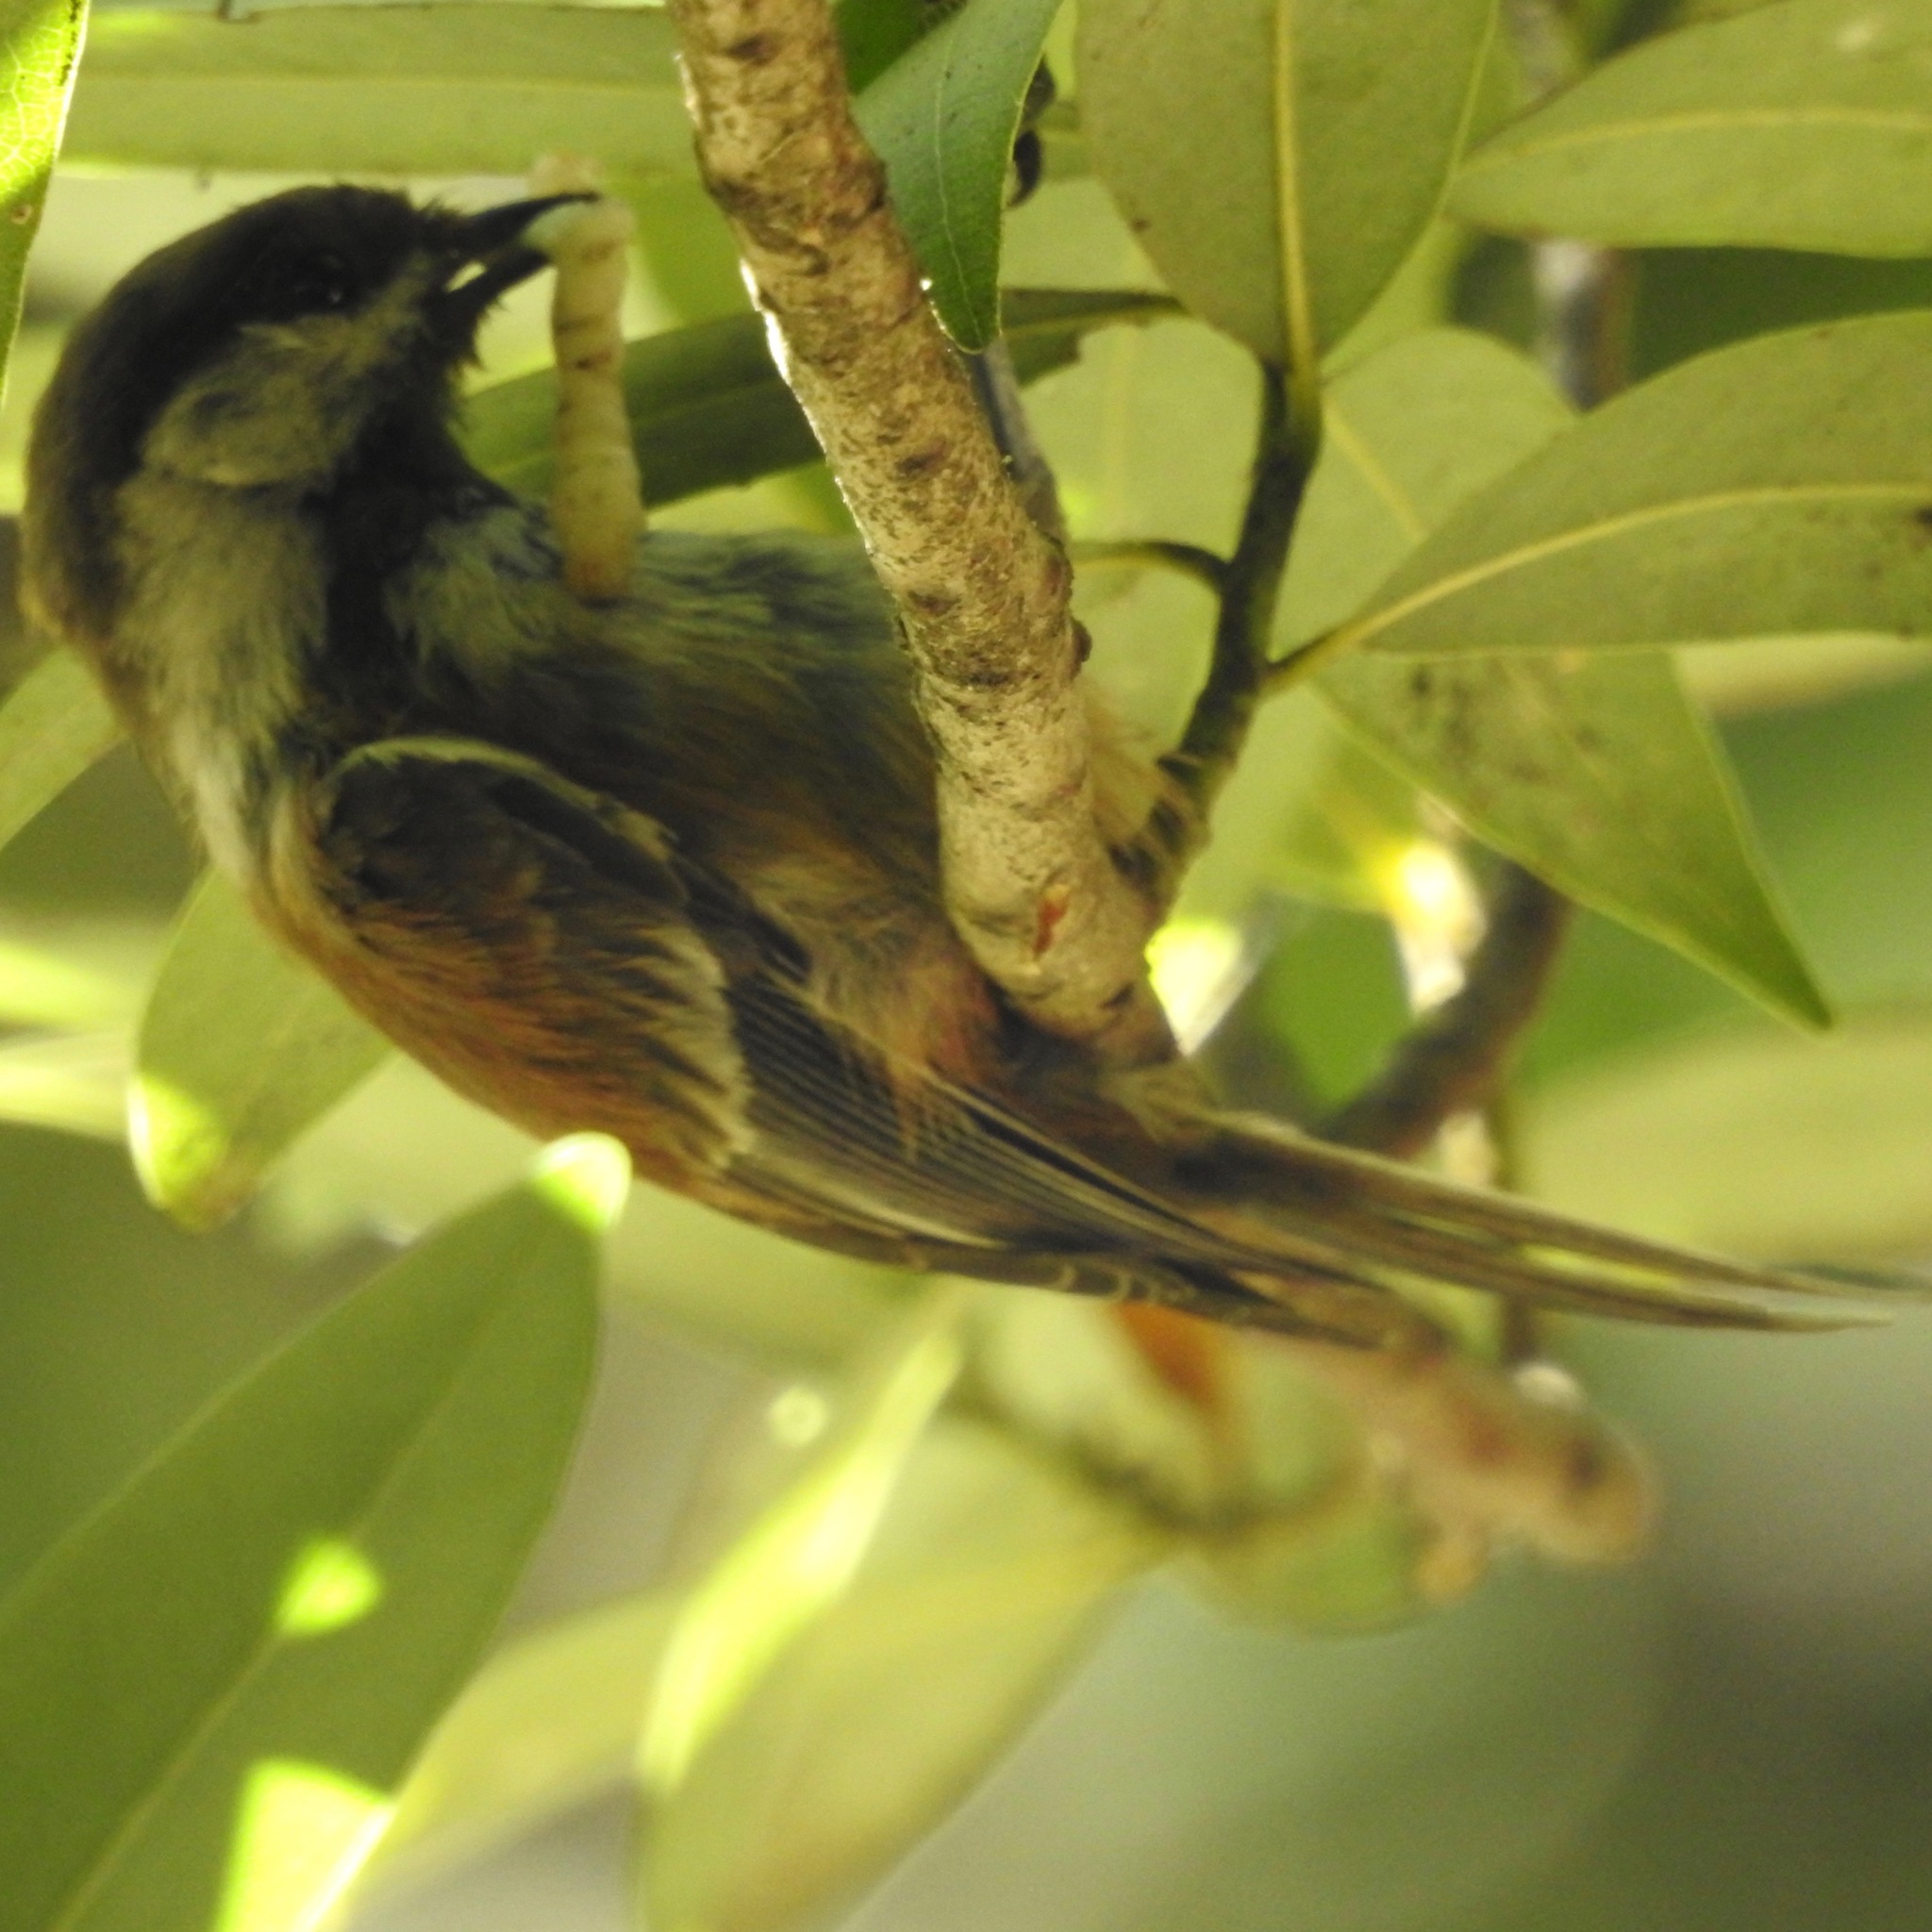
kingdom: Animalia
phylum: Chordata
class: Aves
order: Passeriformes
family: Paridae
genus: Poecile
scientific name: Poecile rufescens
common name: Chestnut-backed chickadee
